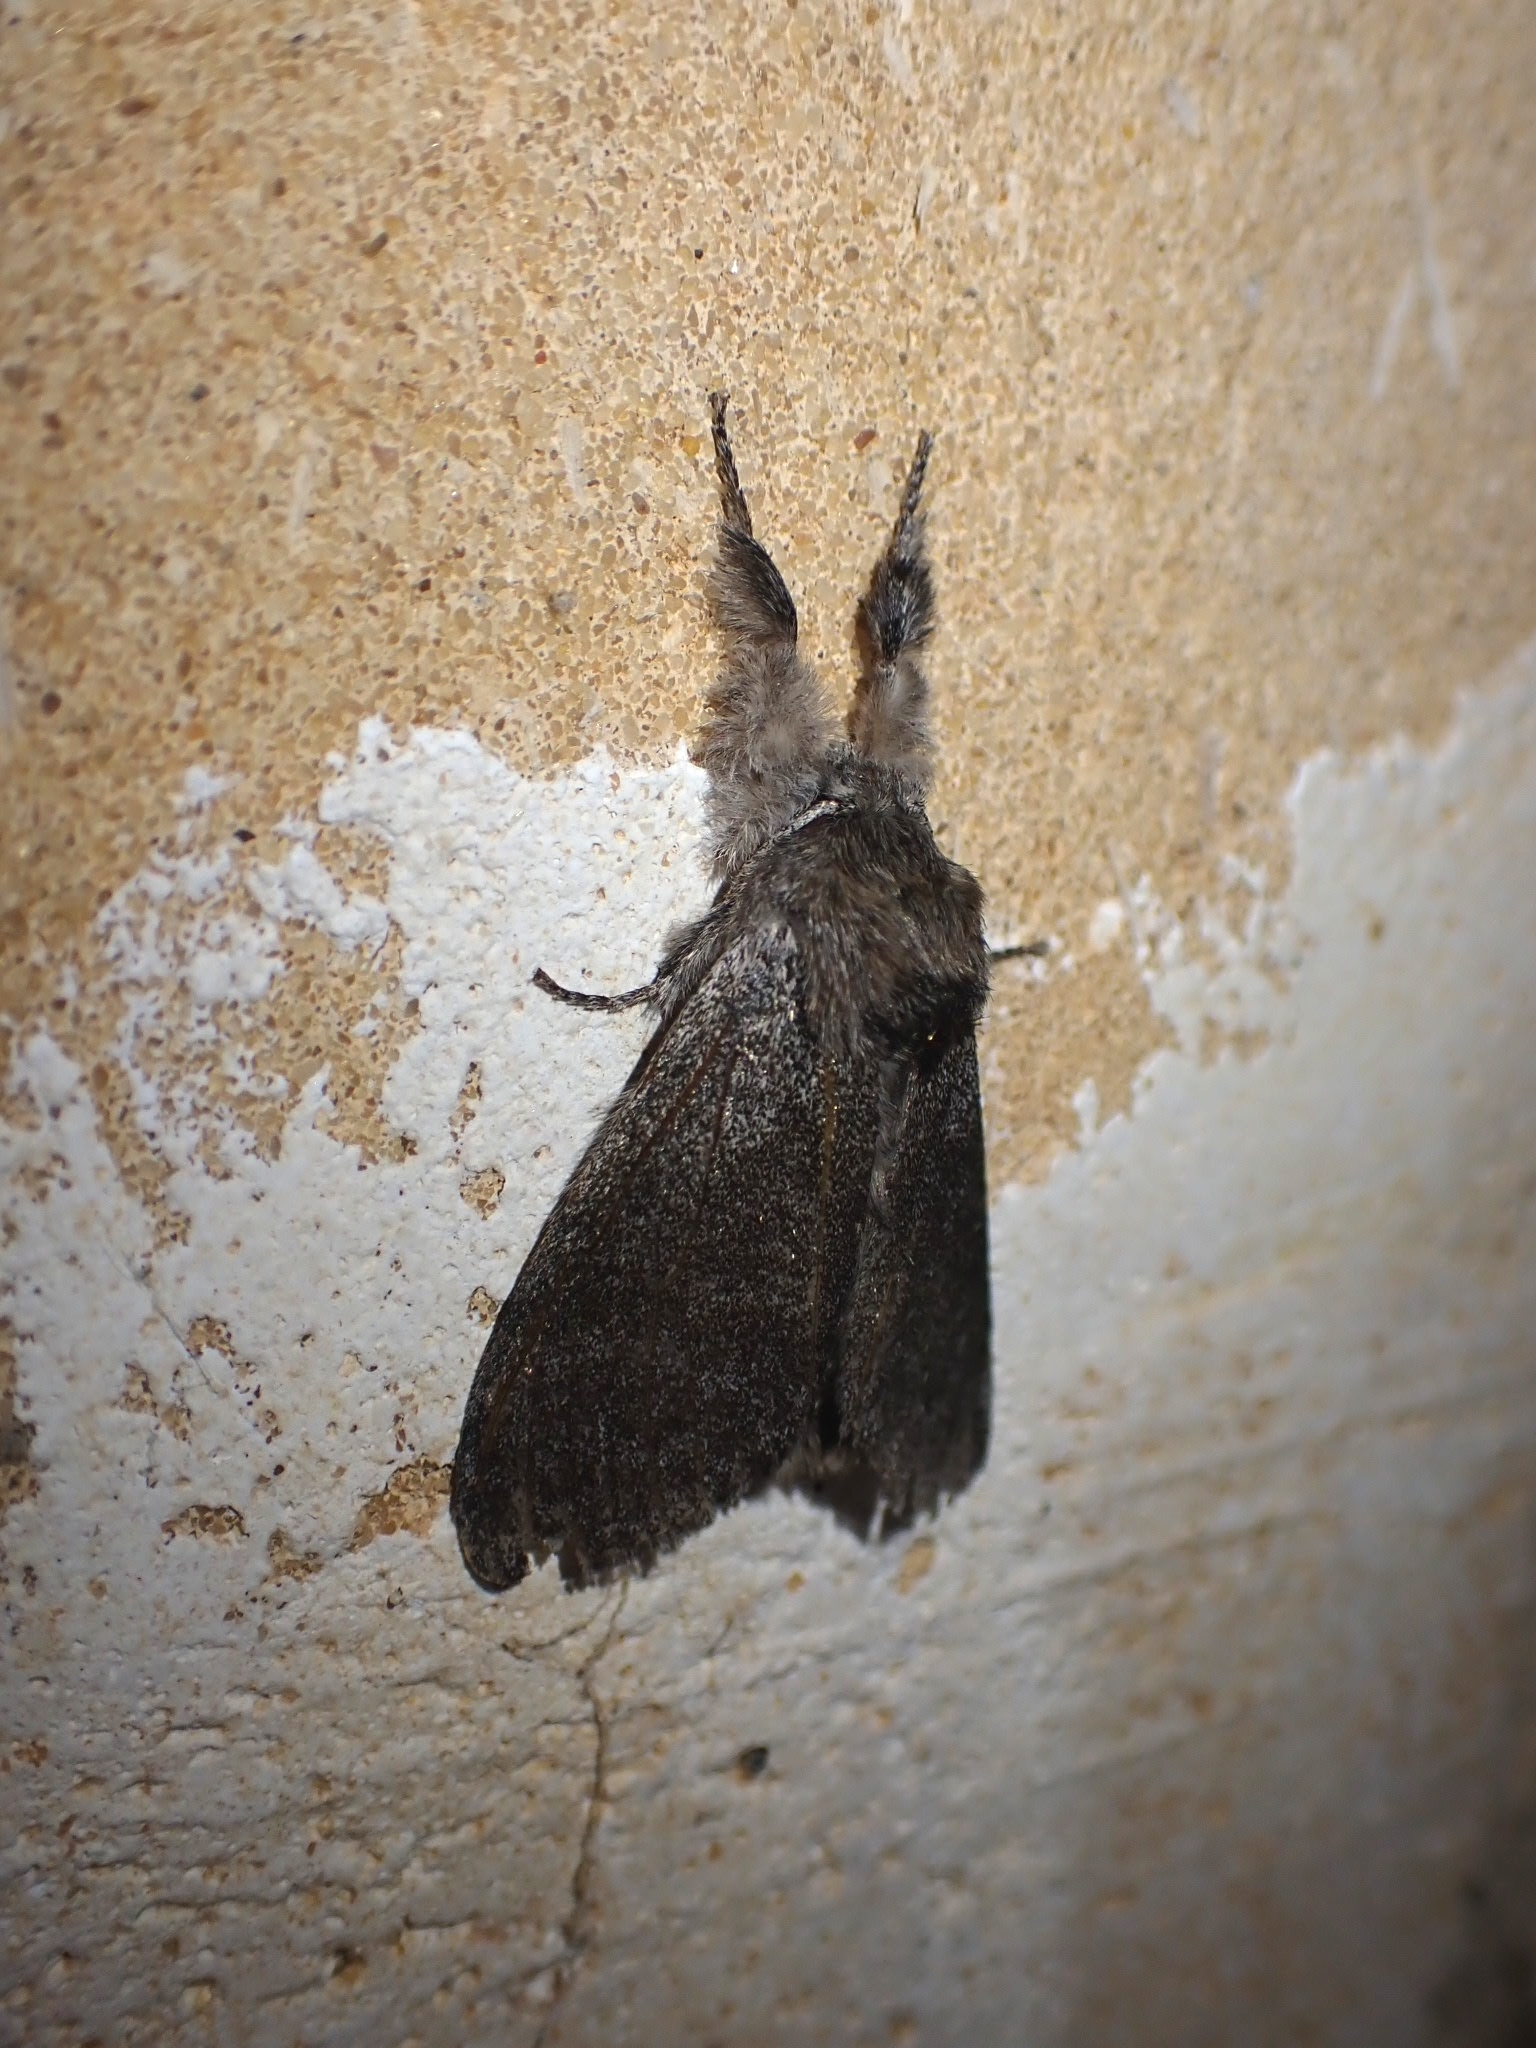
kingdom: Animalia
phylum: Arthropoda
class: Insecta
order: Lepidoptera
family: Erebidae
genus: Calliteara
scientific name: Calliteara pudibunda
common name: Pale tussock
